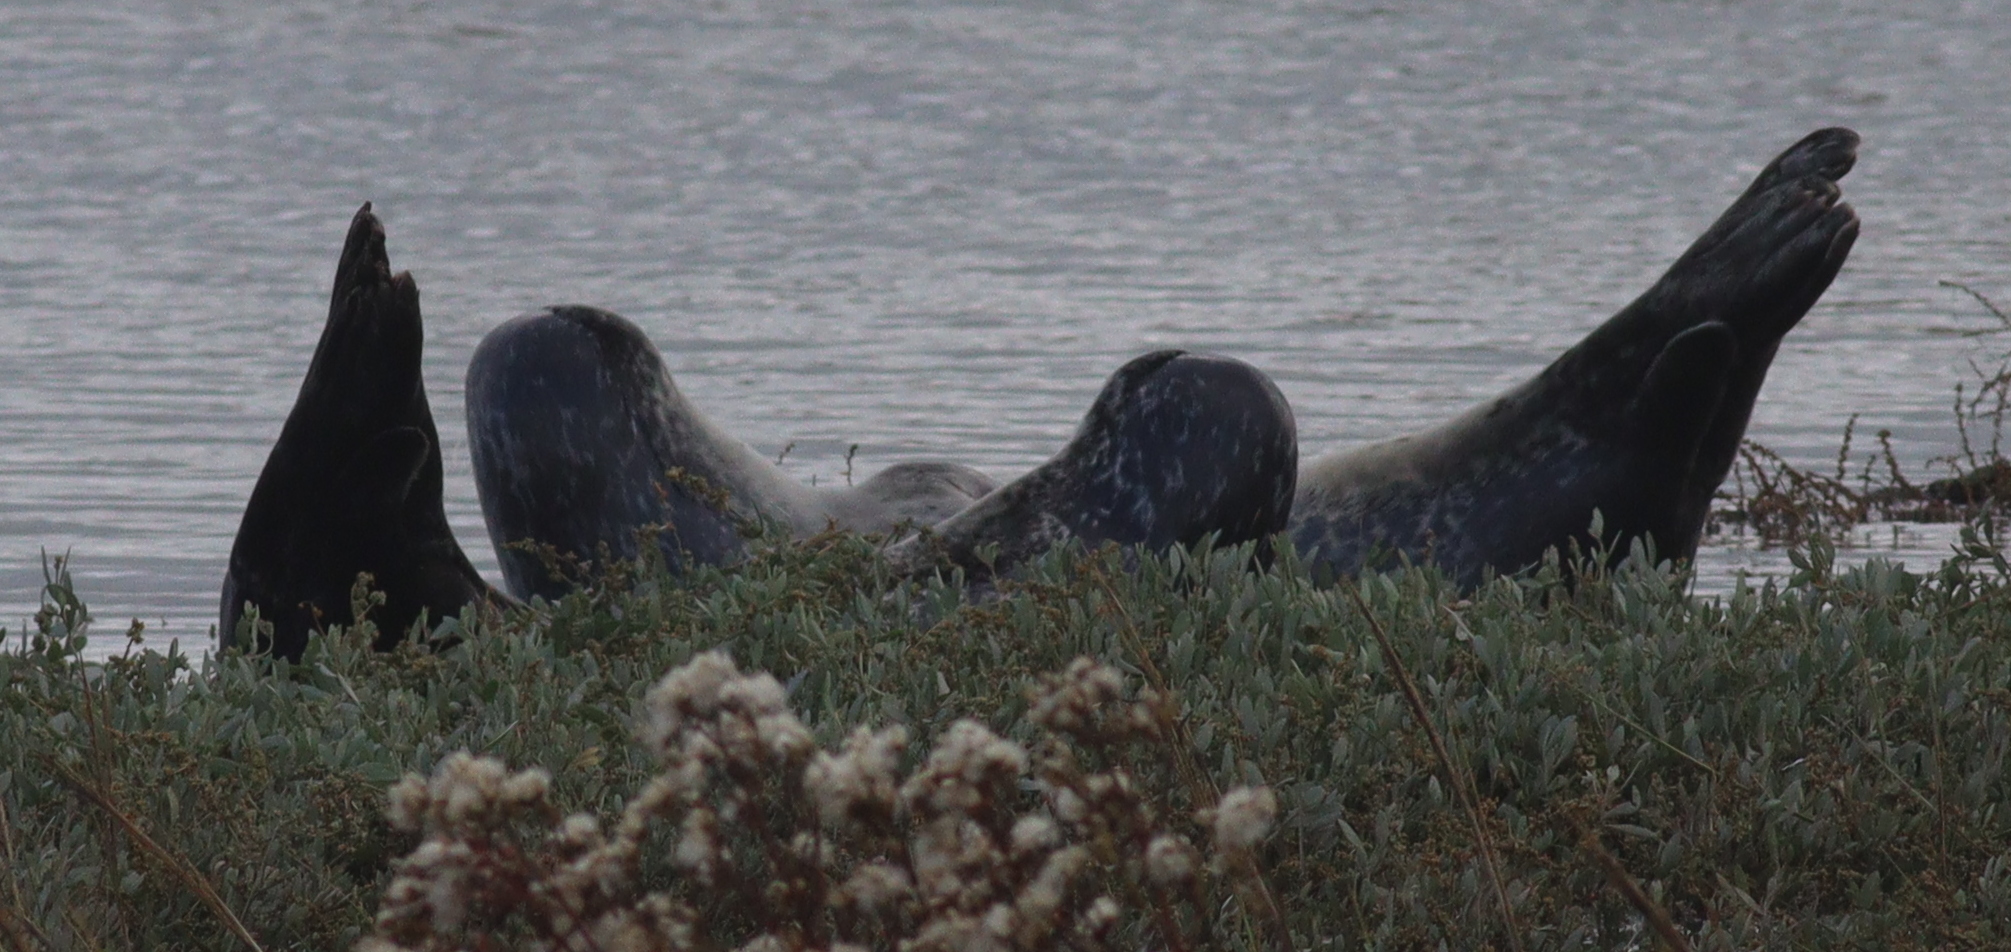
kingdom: Animalia
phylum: Chordata
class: Mammalia
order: Carnivora
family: Phocidae
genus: Phoca
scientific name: Phoca vitulina
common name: Harbor seal
